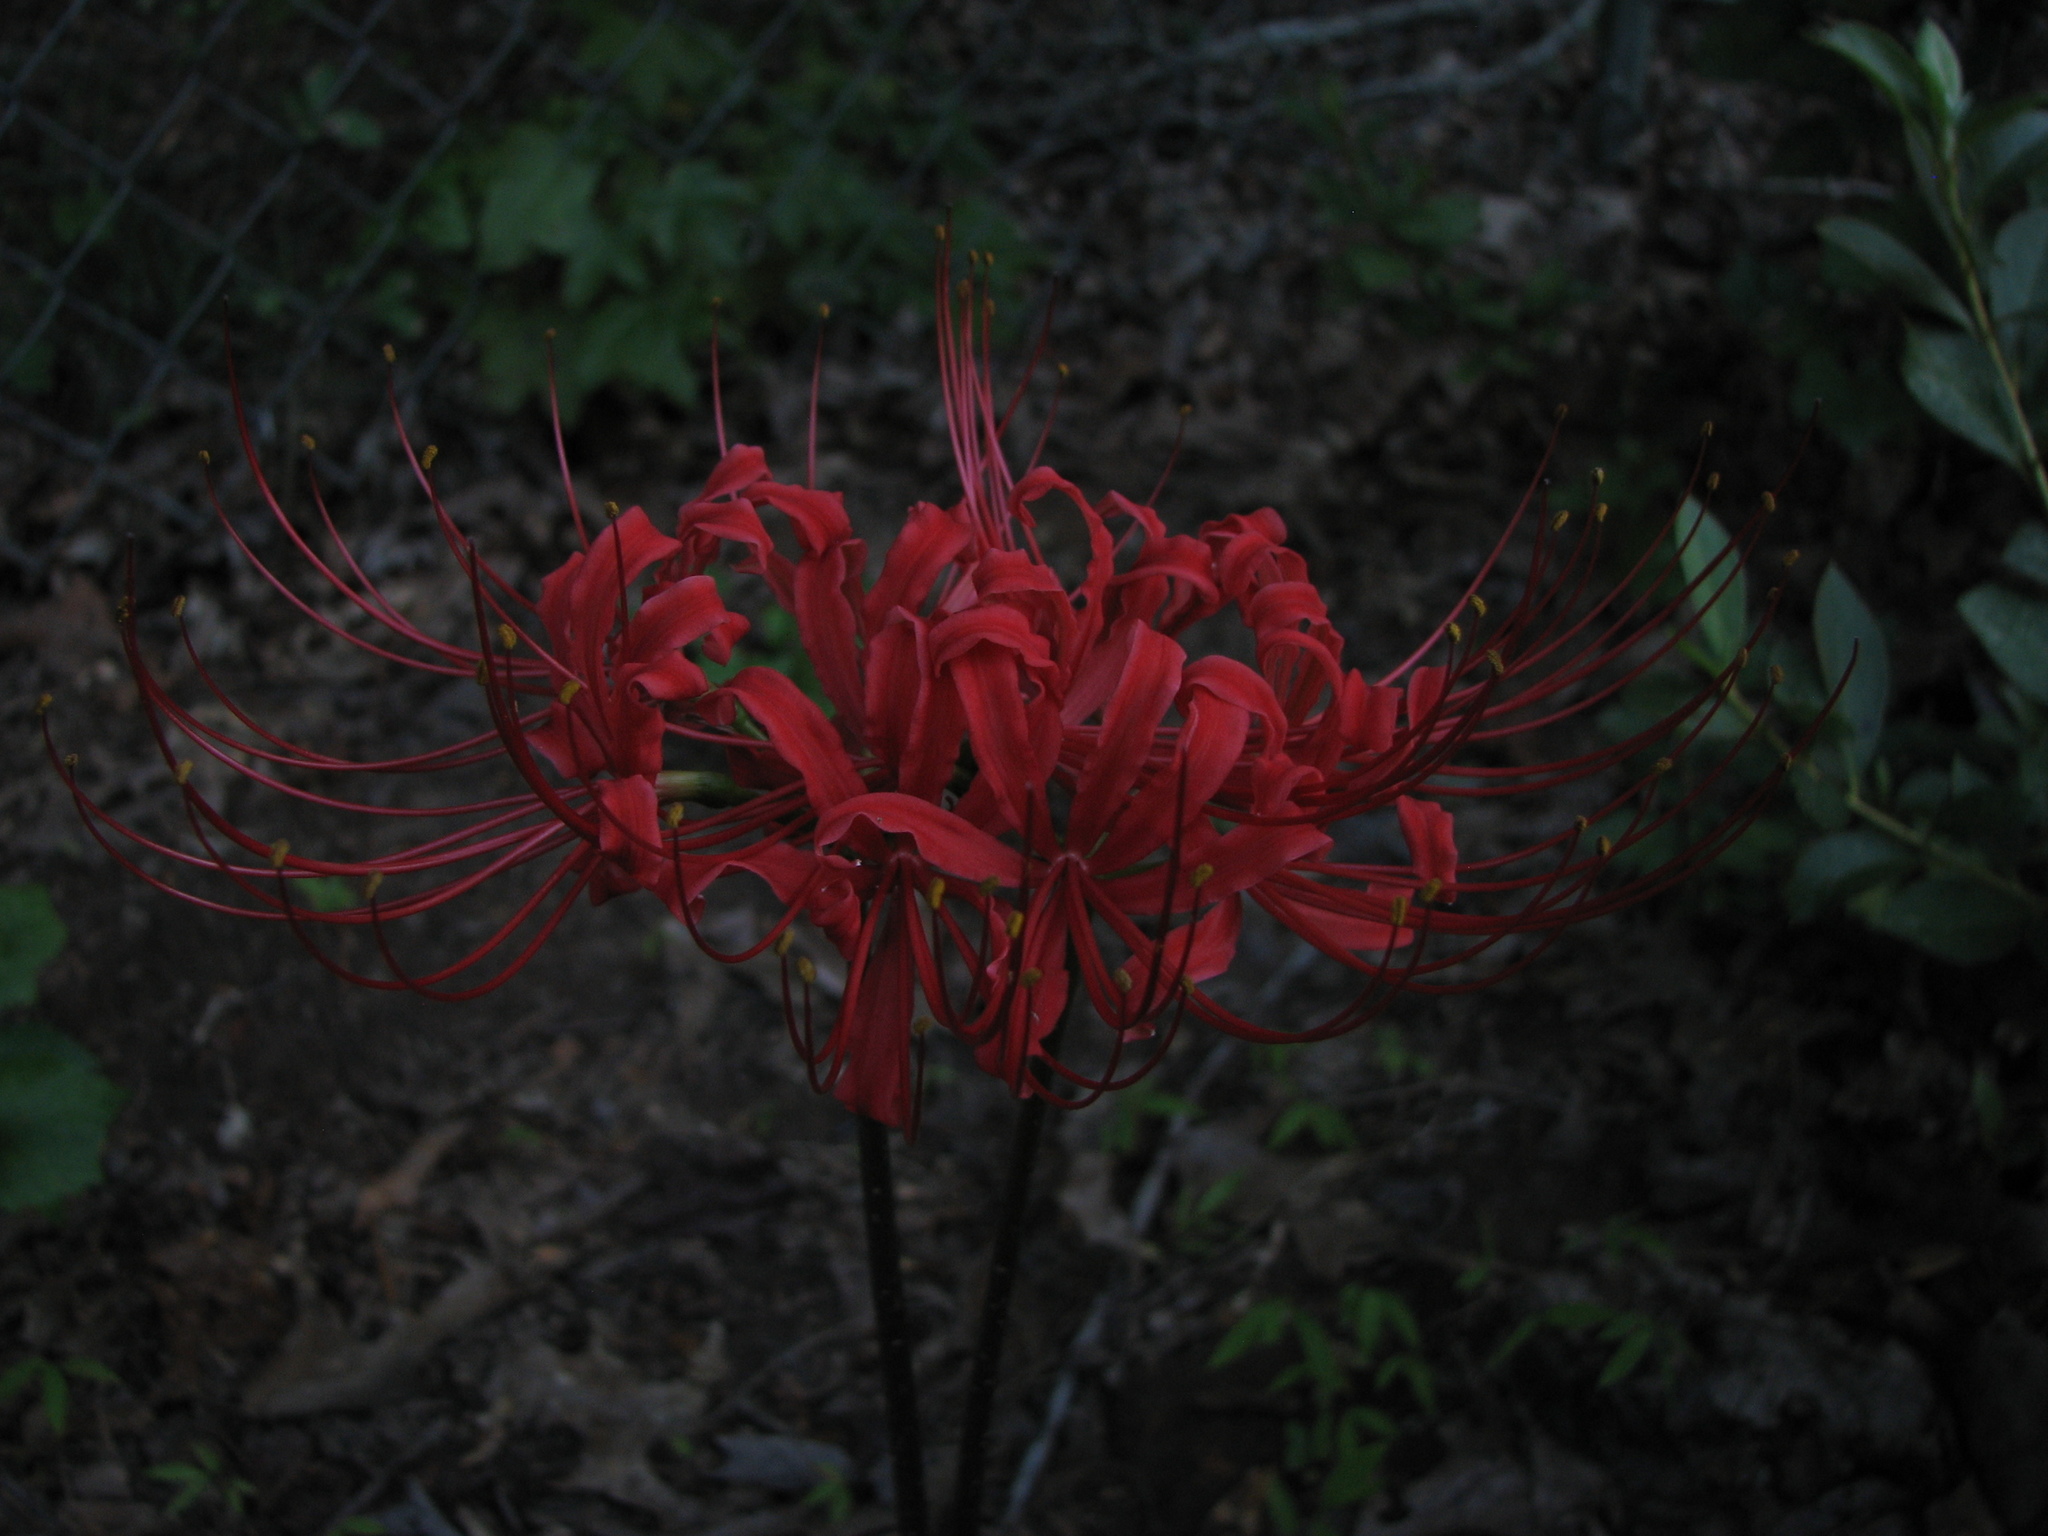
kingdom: Plantae
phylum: Tracheophyta
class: Liliopsida
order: Asparagales
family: Amaryllidaceae
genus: Lycoris
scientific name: Lycoris radiata
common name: Red spider lily
